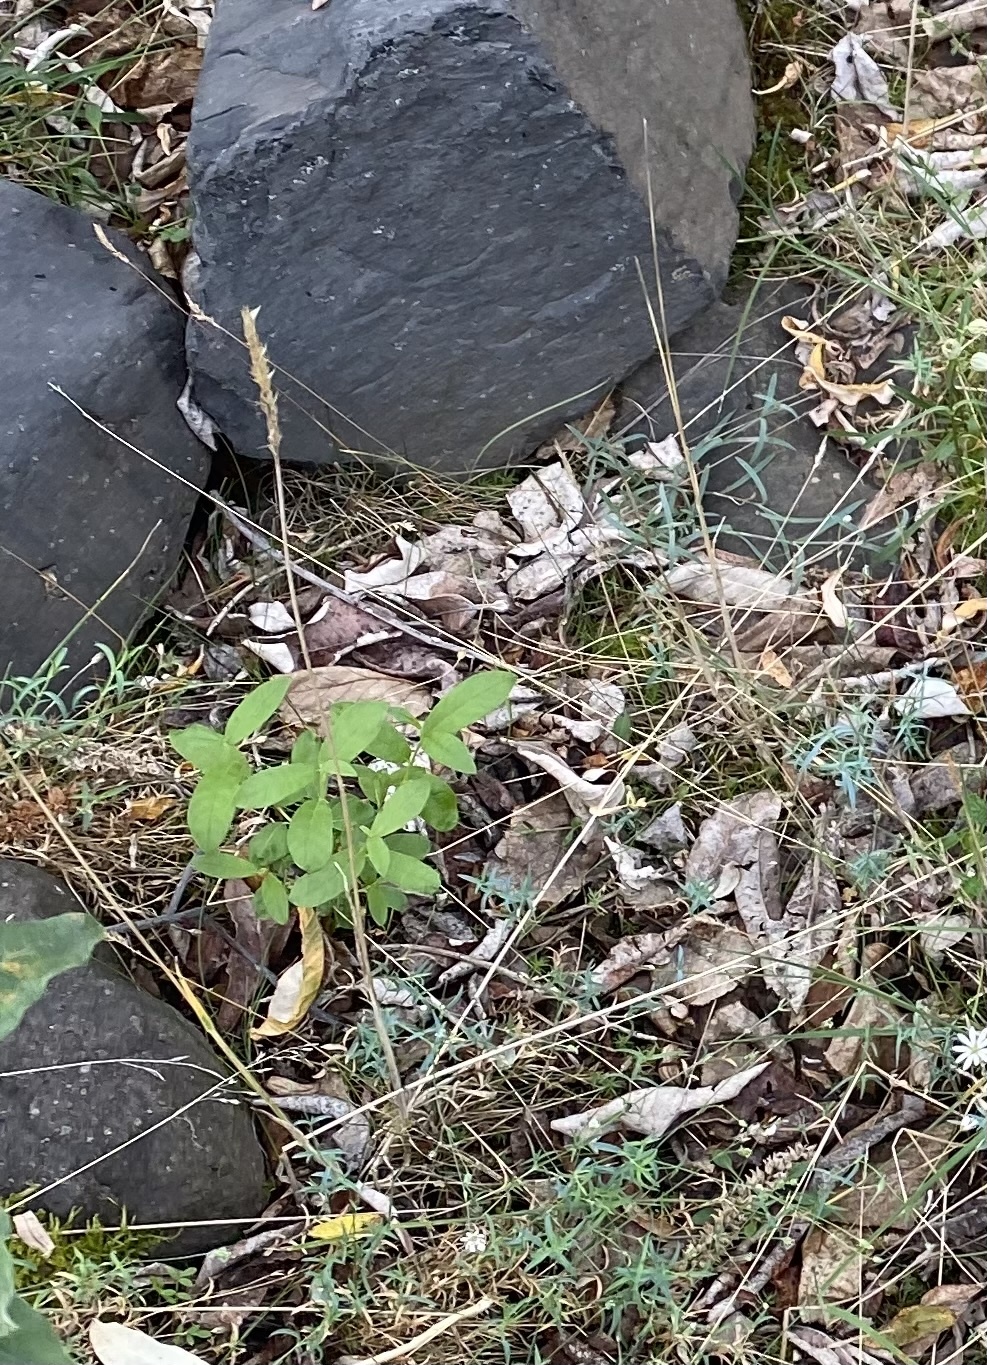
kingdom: Plantae
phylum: Tracheophyta
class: Liliopsida
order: Poales
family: Poaceae
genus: Trisetum
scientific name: Trisetum
